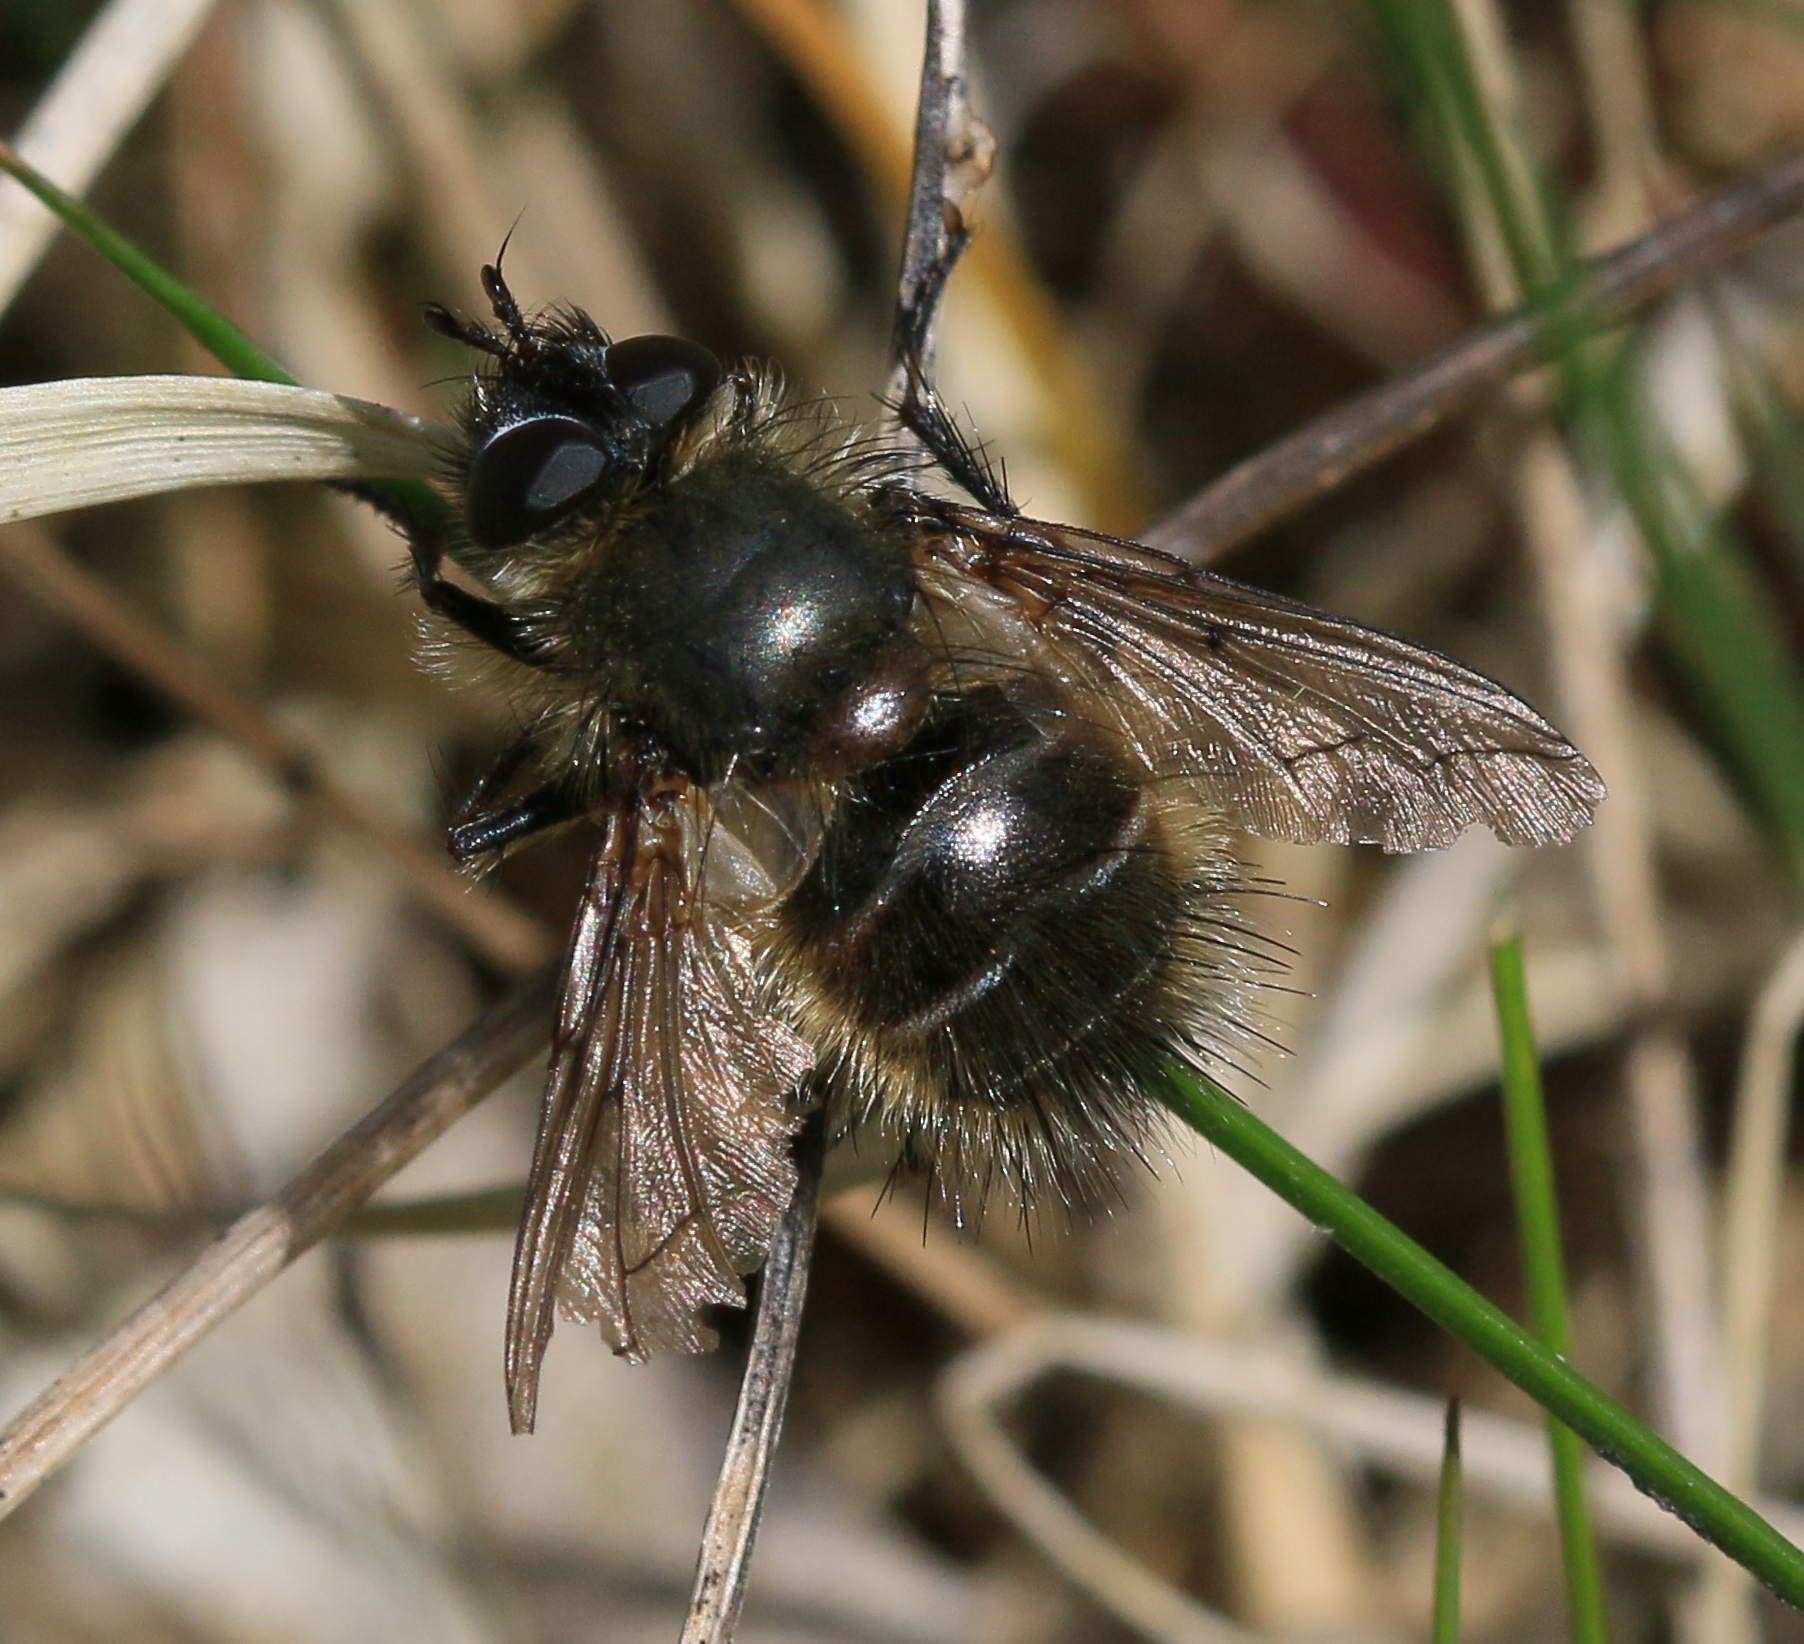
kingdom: Animalia
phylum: Arthropoda
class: Insecta
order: Diptera
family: Tachinidae
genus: Tachina
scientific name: Tachina ursina
